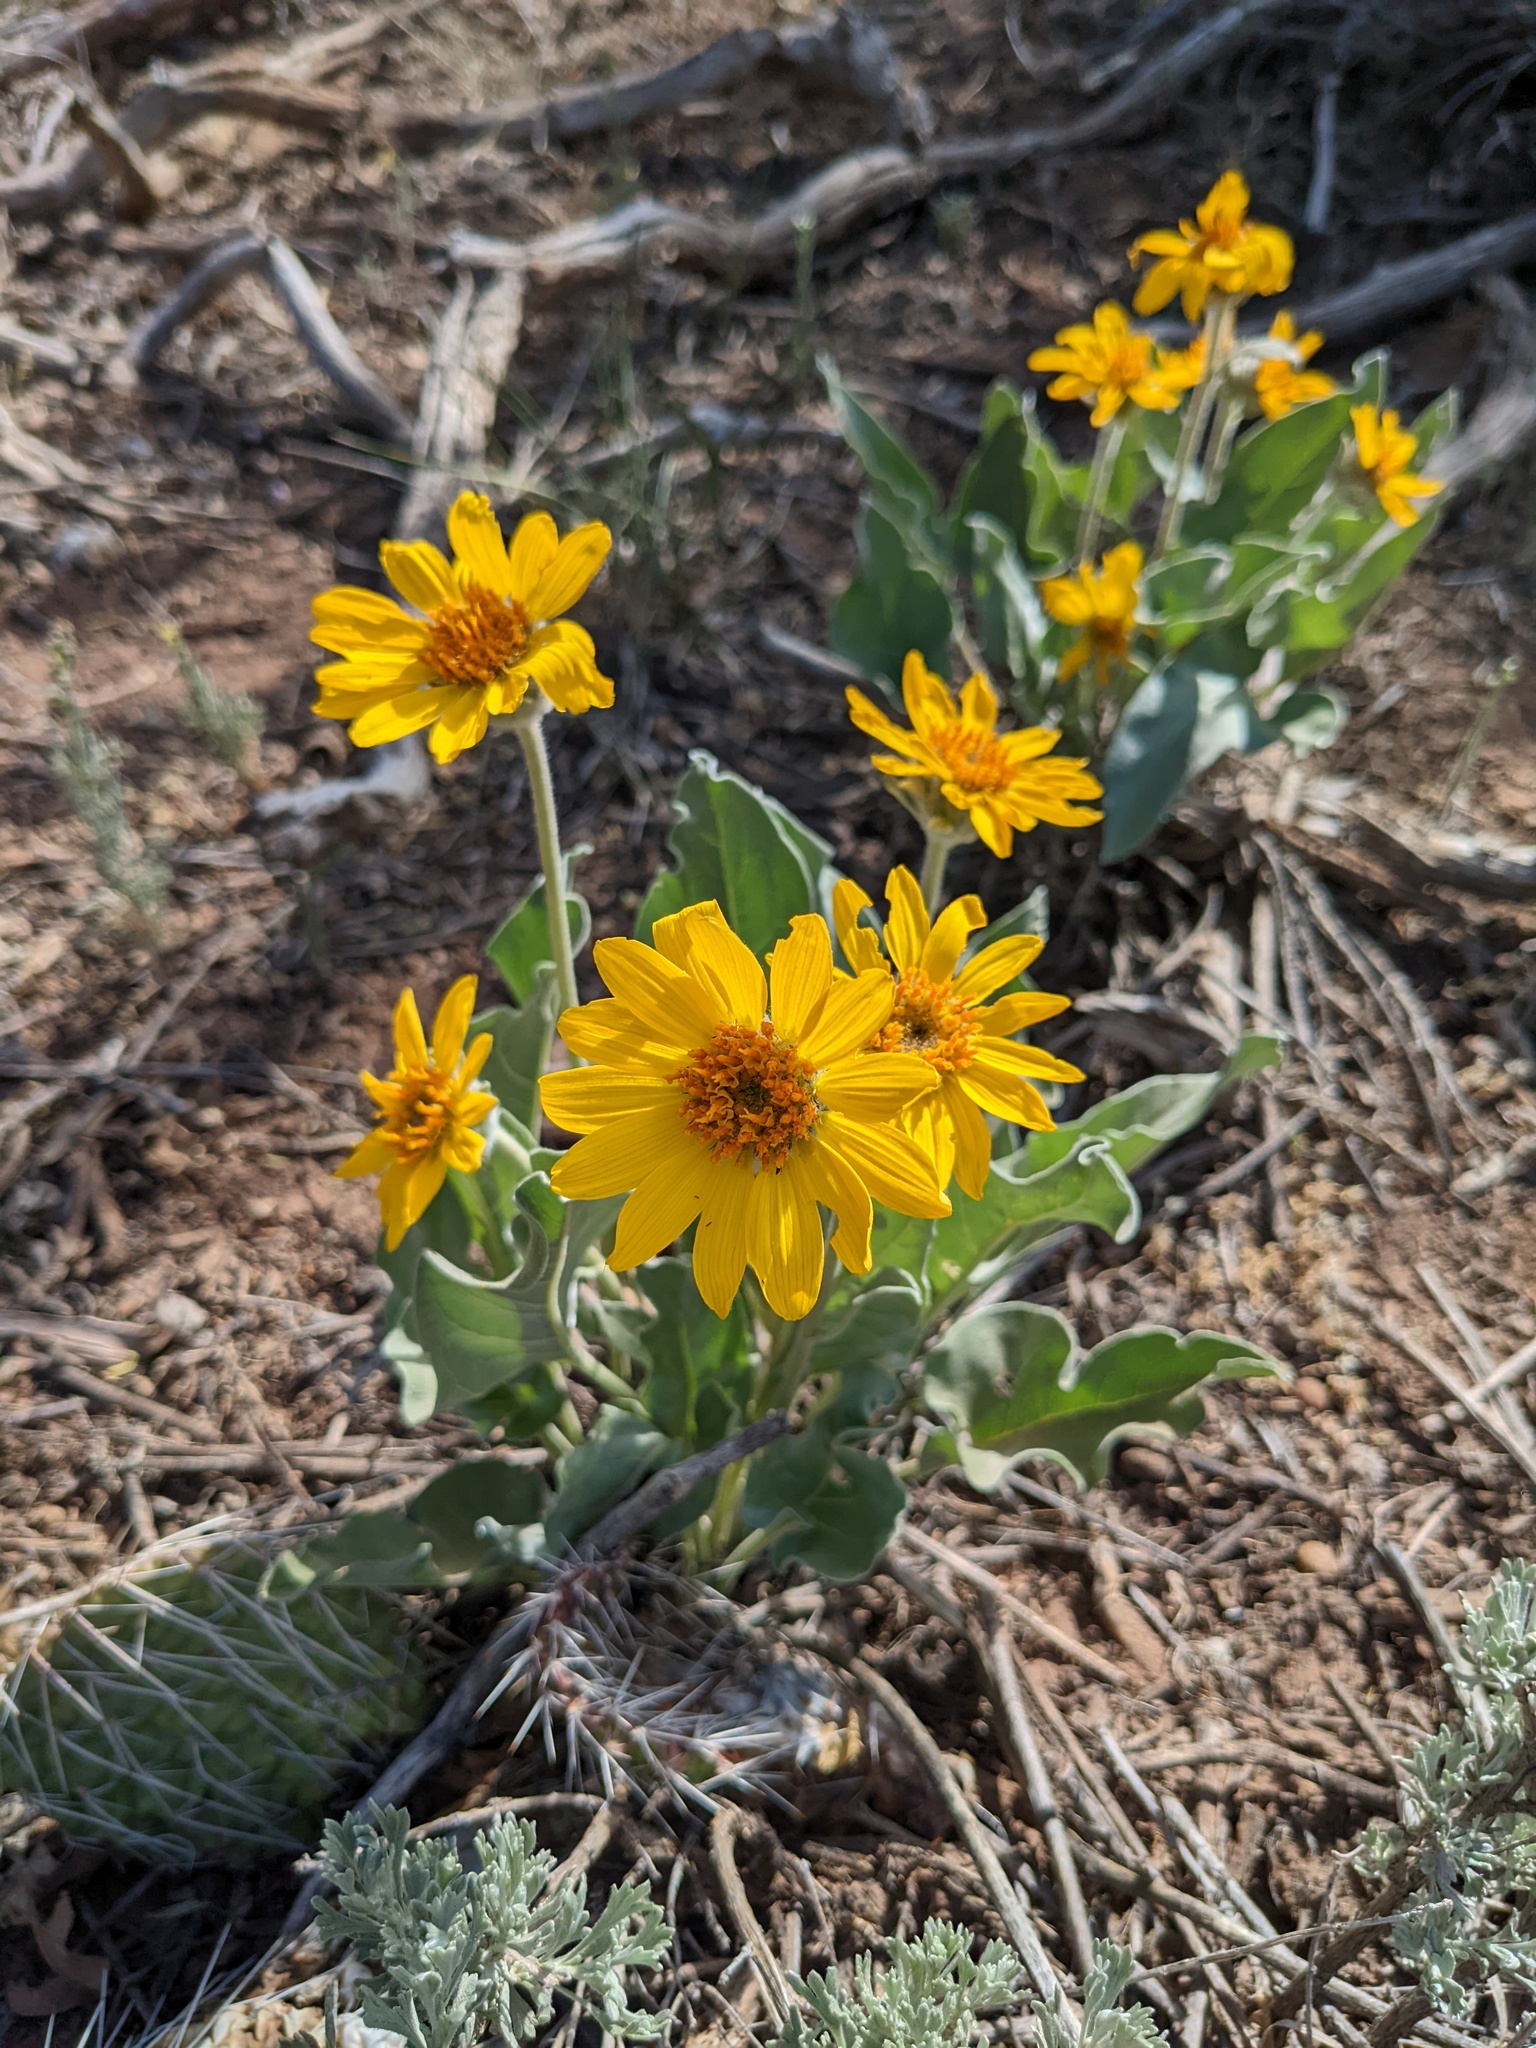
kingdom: Plantae
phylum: Tracheophyta
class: Magnoliopsida
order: Asterales
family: Asteraceae
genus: Wyethia
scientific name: Wyethia sagittata
